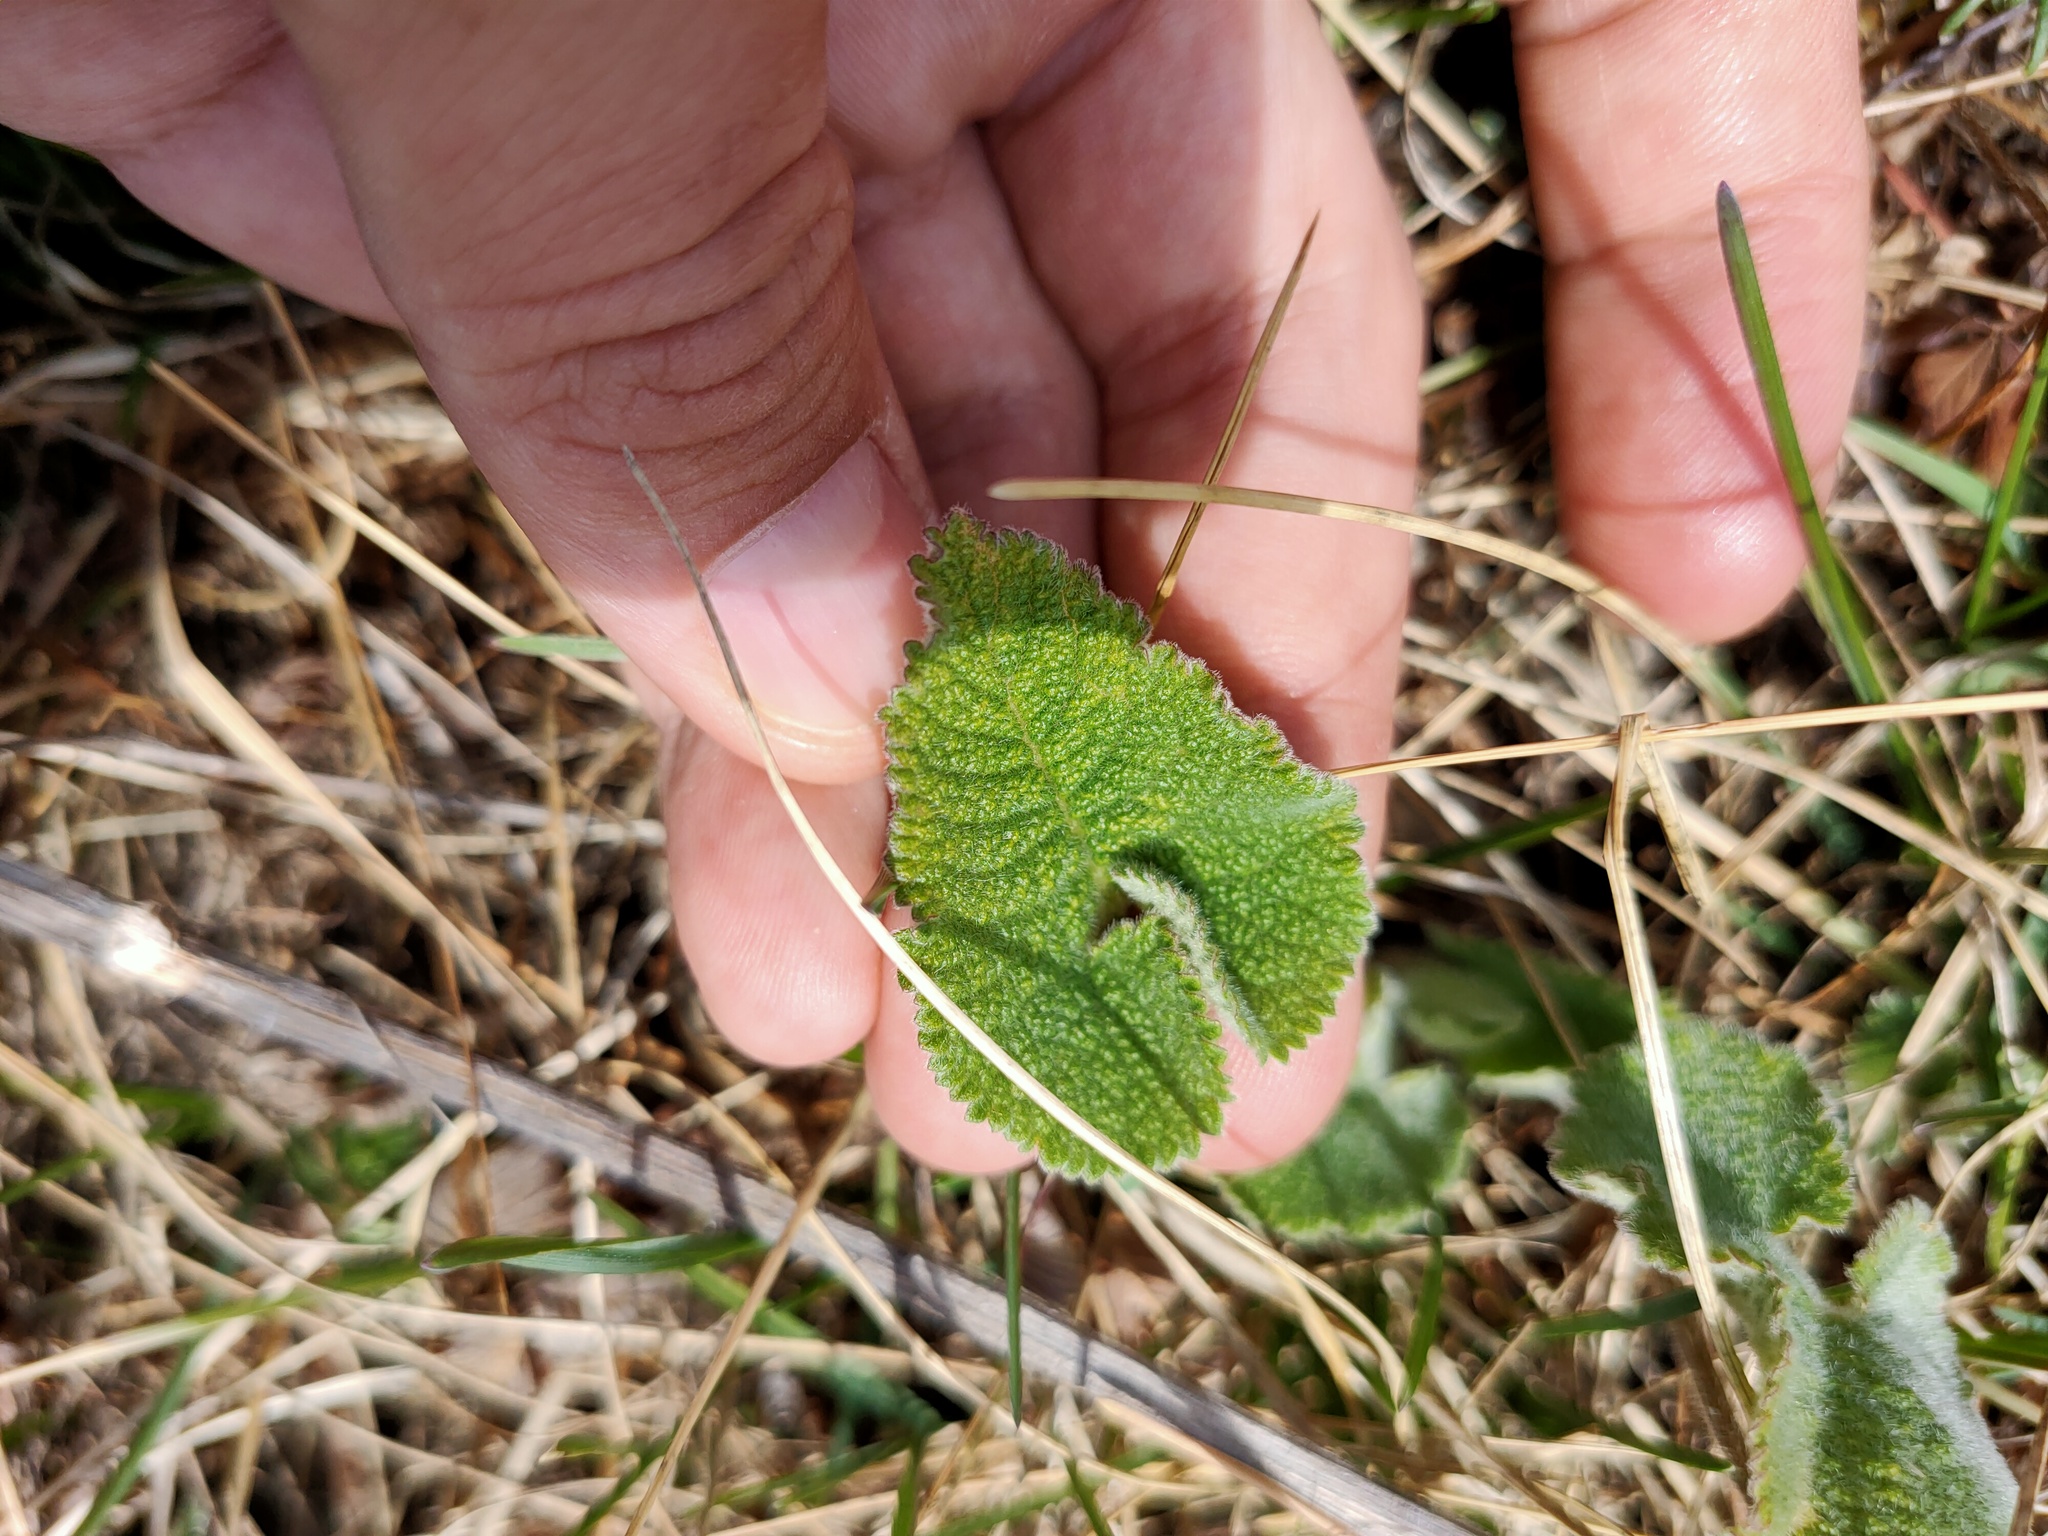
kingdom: Plantae
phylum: Tracheophyta
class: Magnoliopsida
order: Lamiales
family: Lamiaceae
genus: Phlomoides
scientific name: Phlomoides tuberosa
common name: Tuberous jerusalem sage
